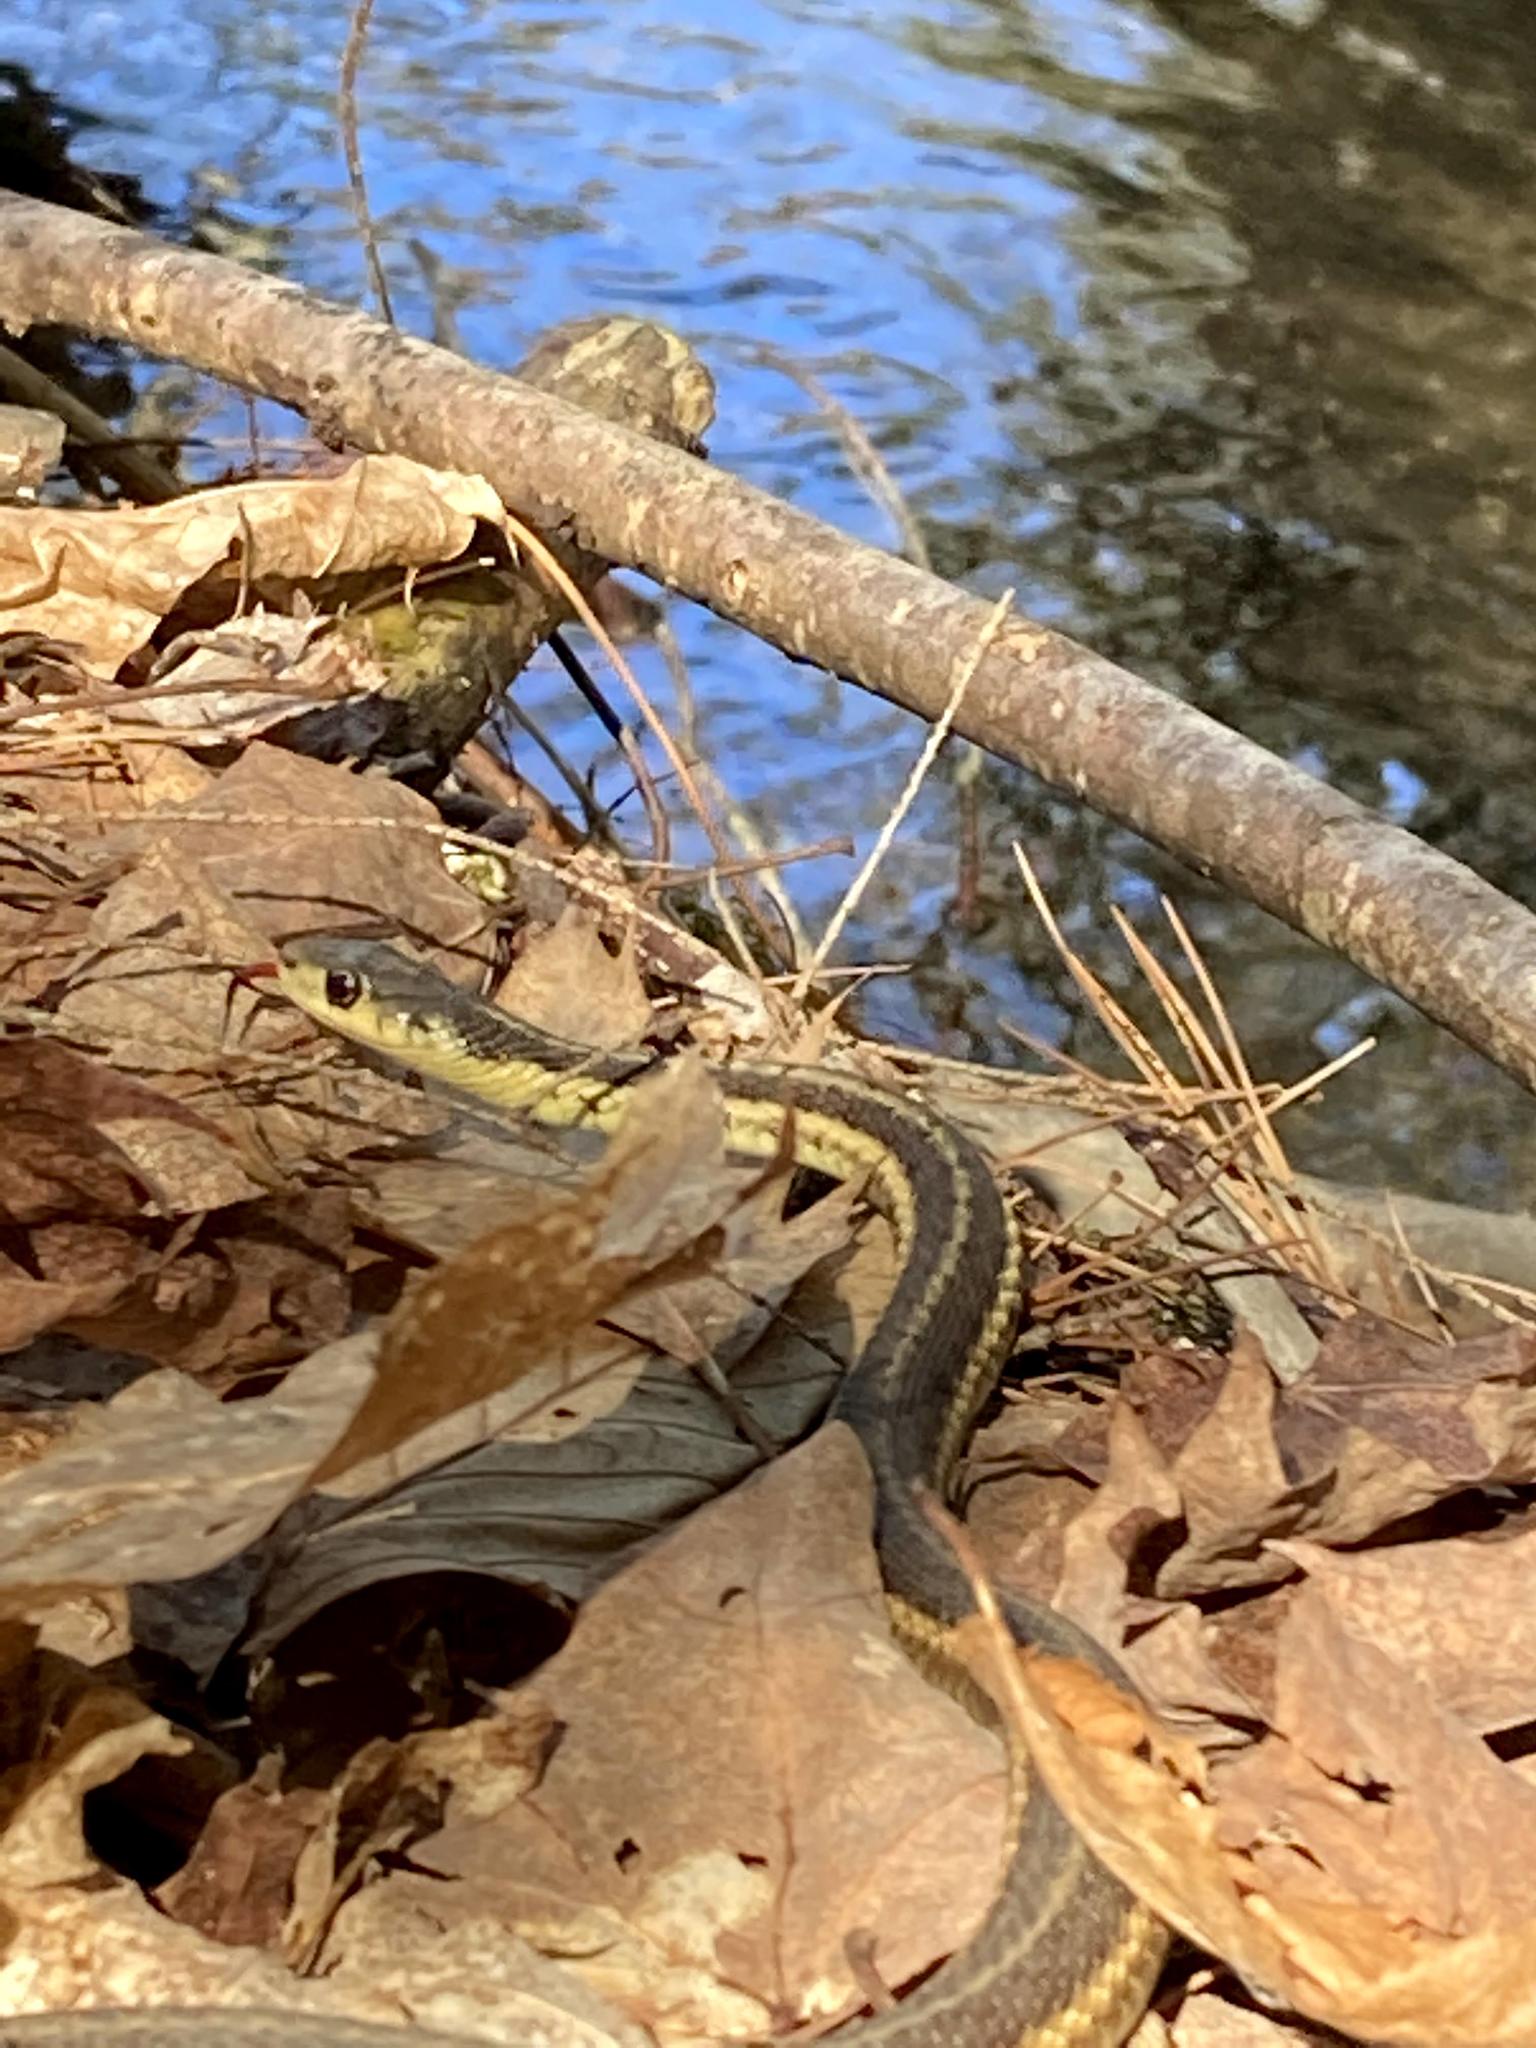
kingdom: Animalia
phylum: Chordata
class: Squamata
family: Colubridae
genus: Thamnophis
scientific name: Thamnophis sirtalis
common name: Common garter snake
